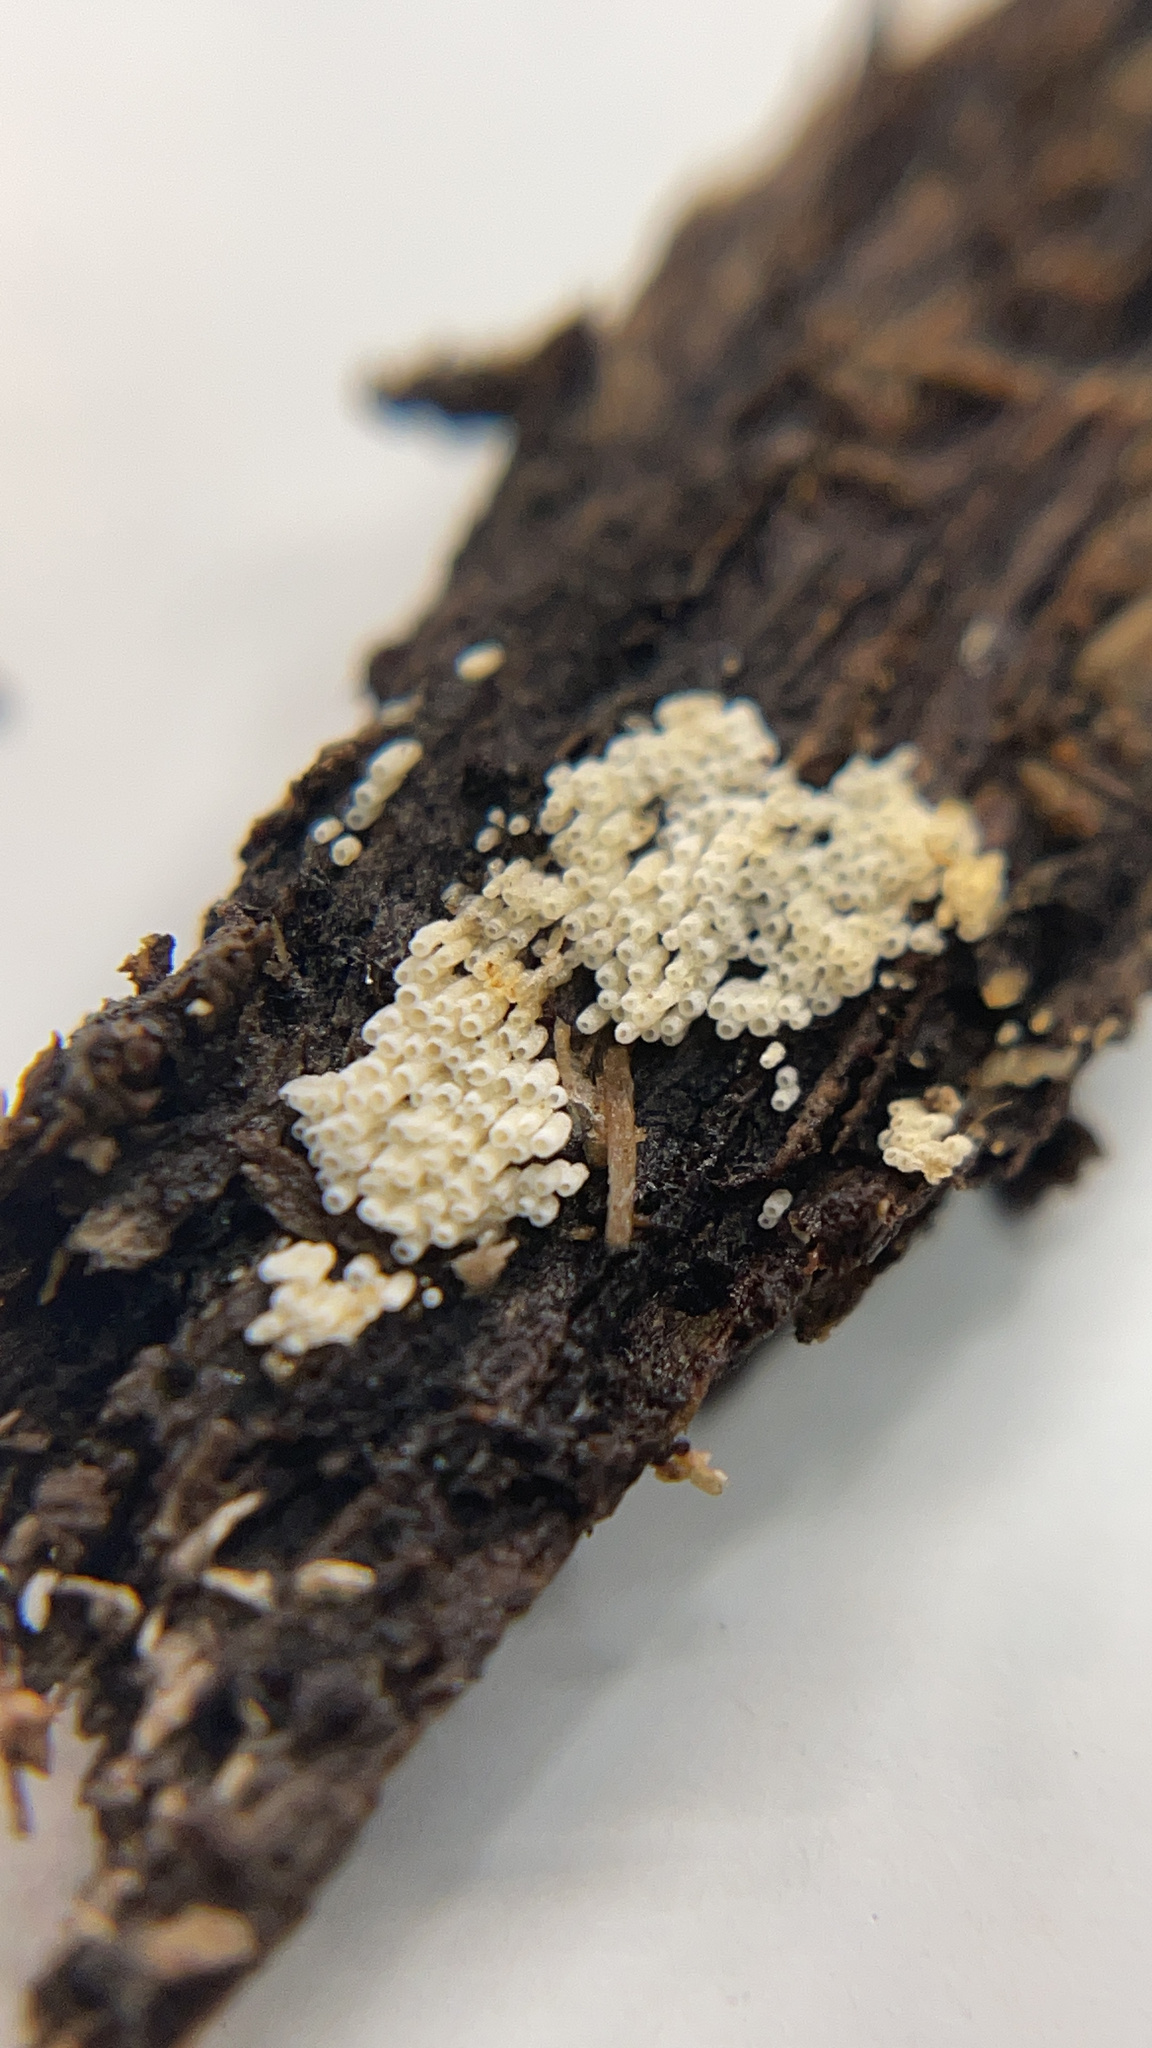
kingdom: Fungi
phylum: Basidiomycota
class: Agaricomycetes
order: Agaricales
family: Marasmiaceae
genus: Henningsomyces
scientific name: Henningsomyces candidus
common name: White tubelet
